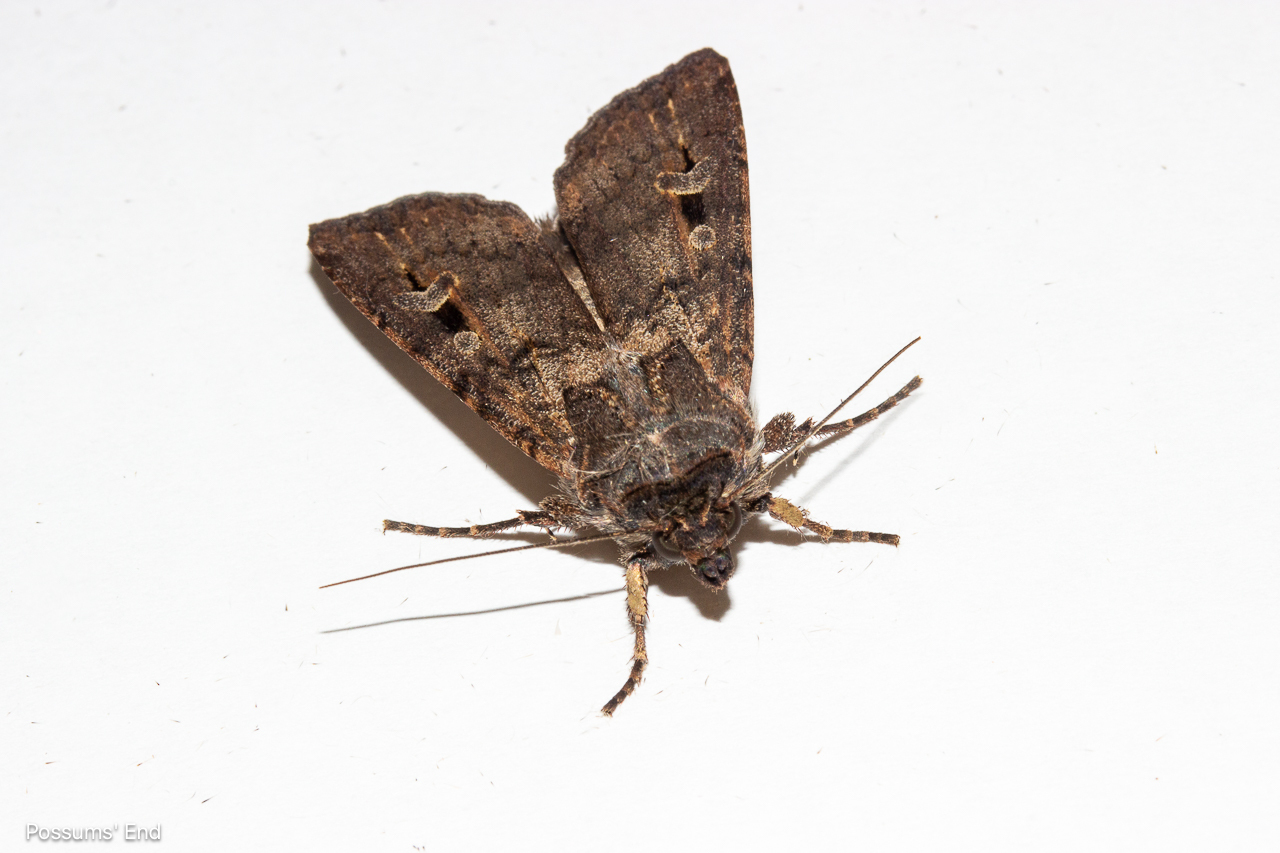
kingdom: Animalia
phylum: Arthropoda
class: Insecta
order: Lepidoptera
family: Noctuidae
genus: Agrotis
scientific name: Agrotis infusa
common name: Bogong moth
